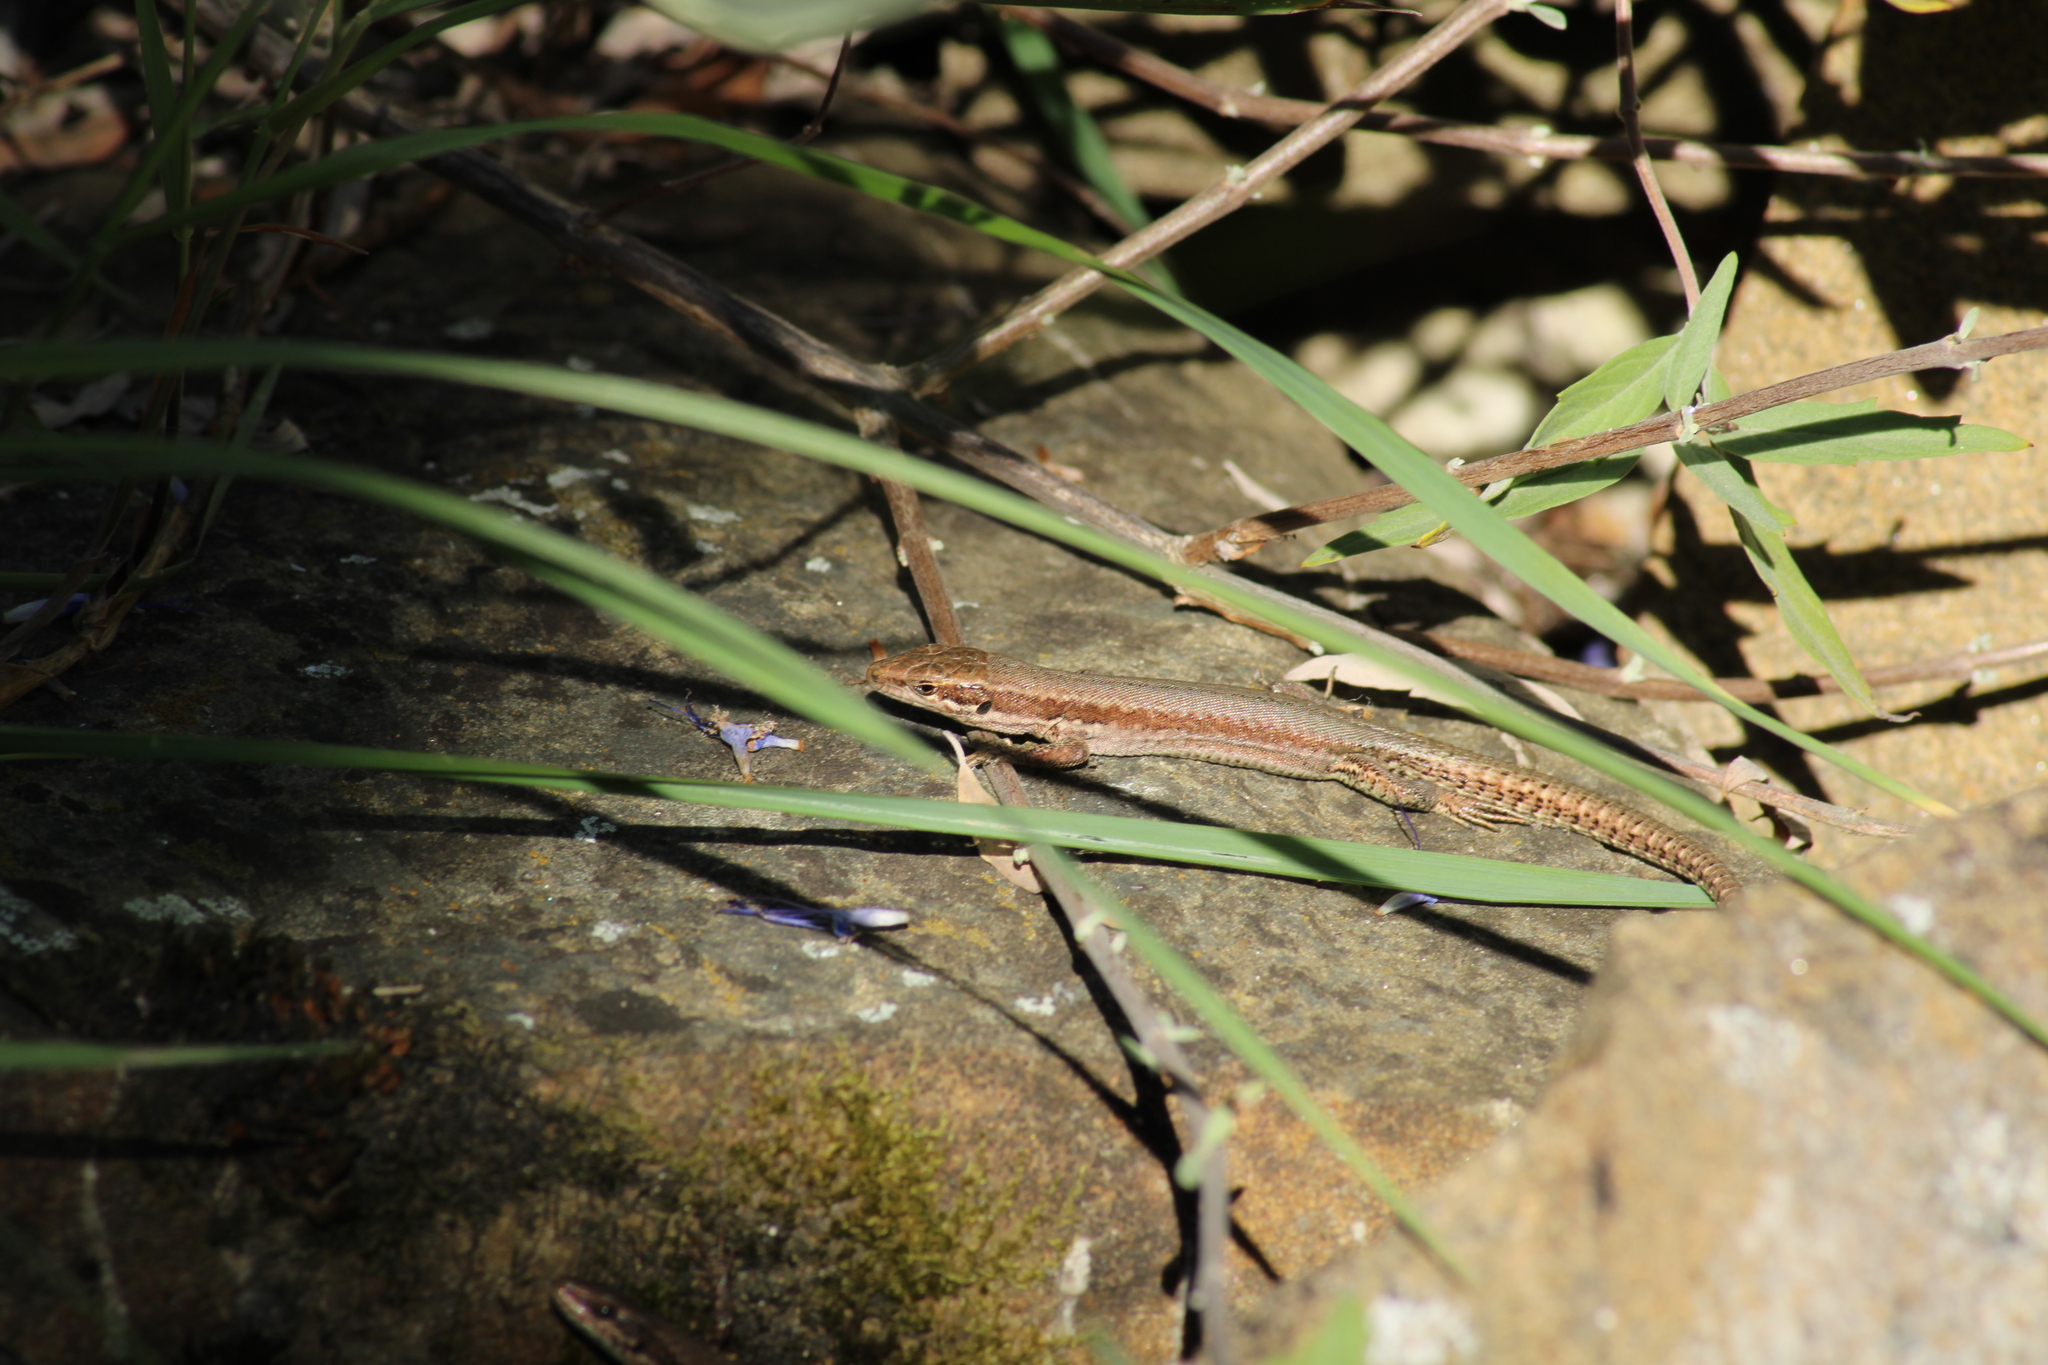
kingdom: Animalia
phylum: Chordata
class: Squamata
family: Lacertidae
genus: Podarcis
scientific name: Podarcis muralis
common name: Common wall lizard
